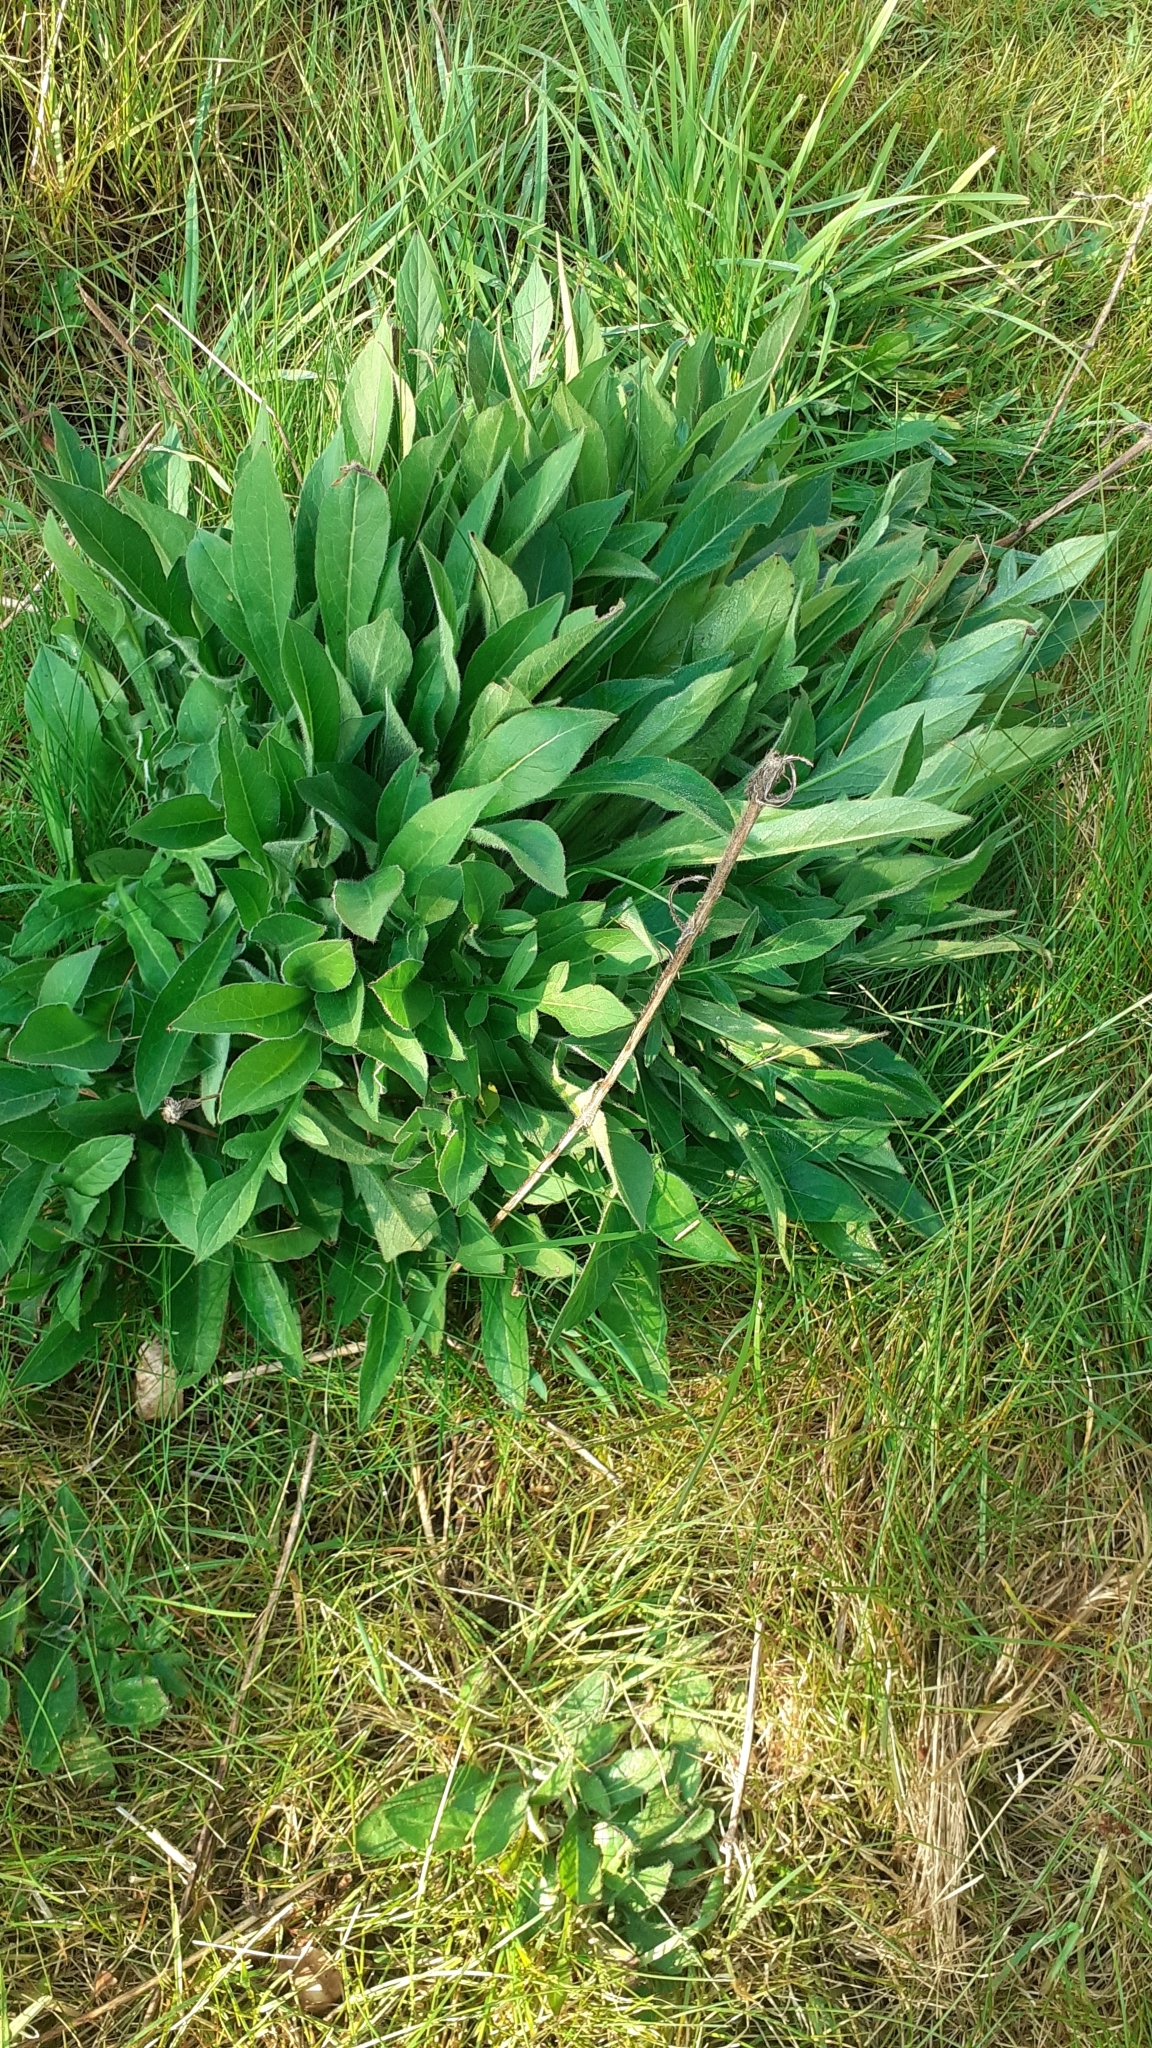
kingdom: Plantae
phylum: Tracheophyta
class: Magnoliopsida
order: Dipsacales
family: Caprifoliaceae
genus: Knautia
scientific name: Knautia arvensis
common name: Field scabiosa
